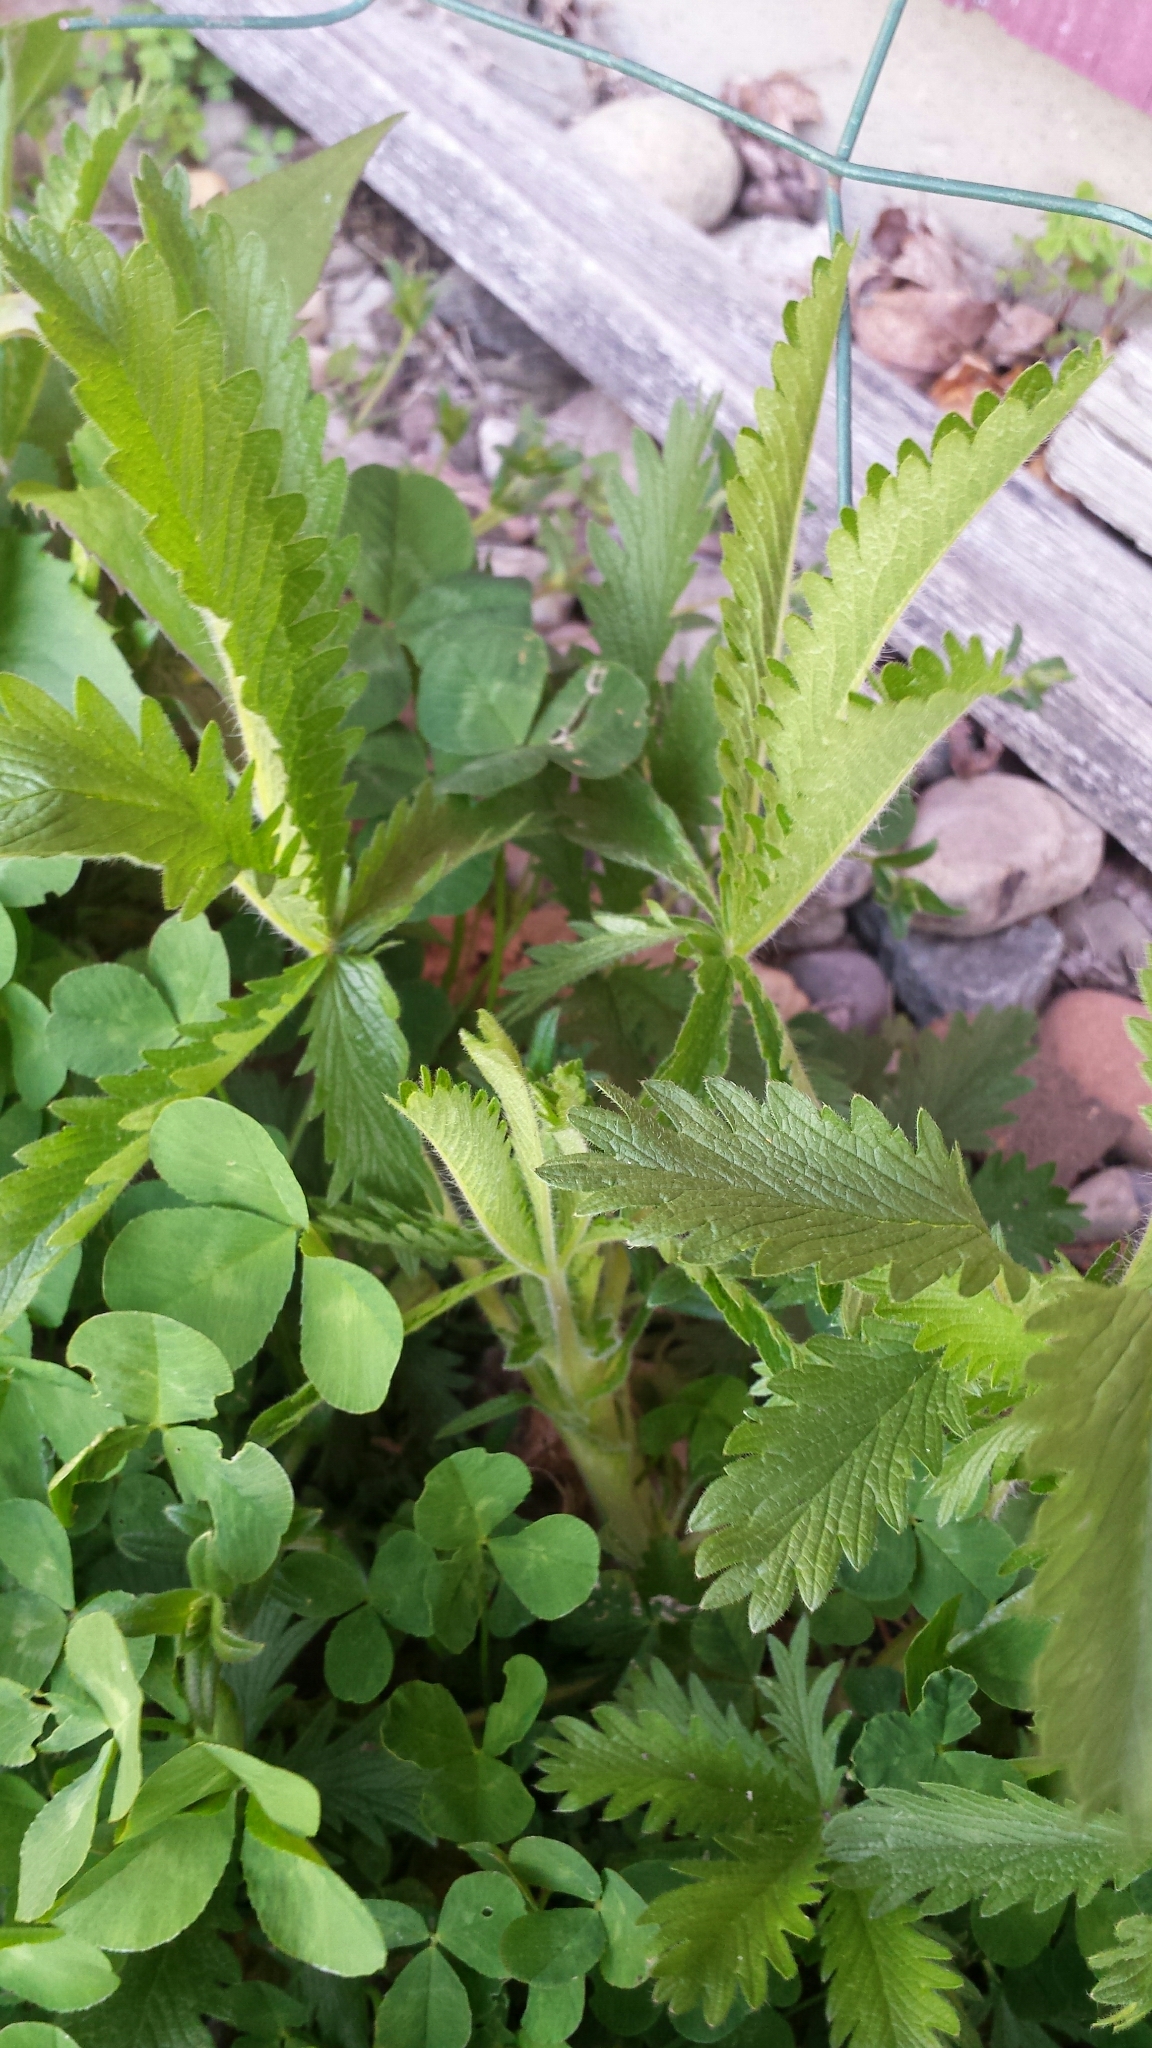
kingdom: Plantae
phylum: Tracheophyta
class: Magnoliopsida
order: Rosales
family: Rosaceae
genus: Potentilla
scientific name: Potentilla recta
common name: Sulphur cinquefoil
